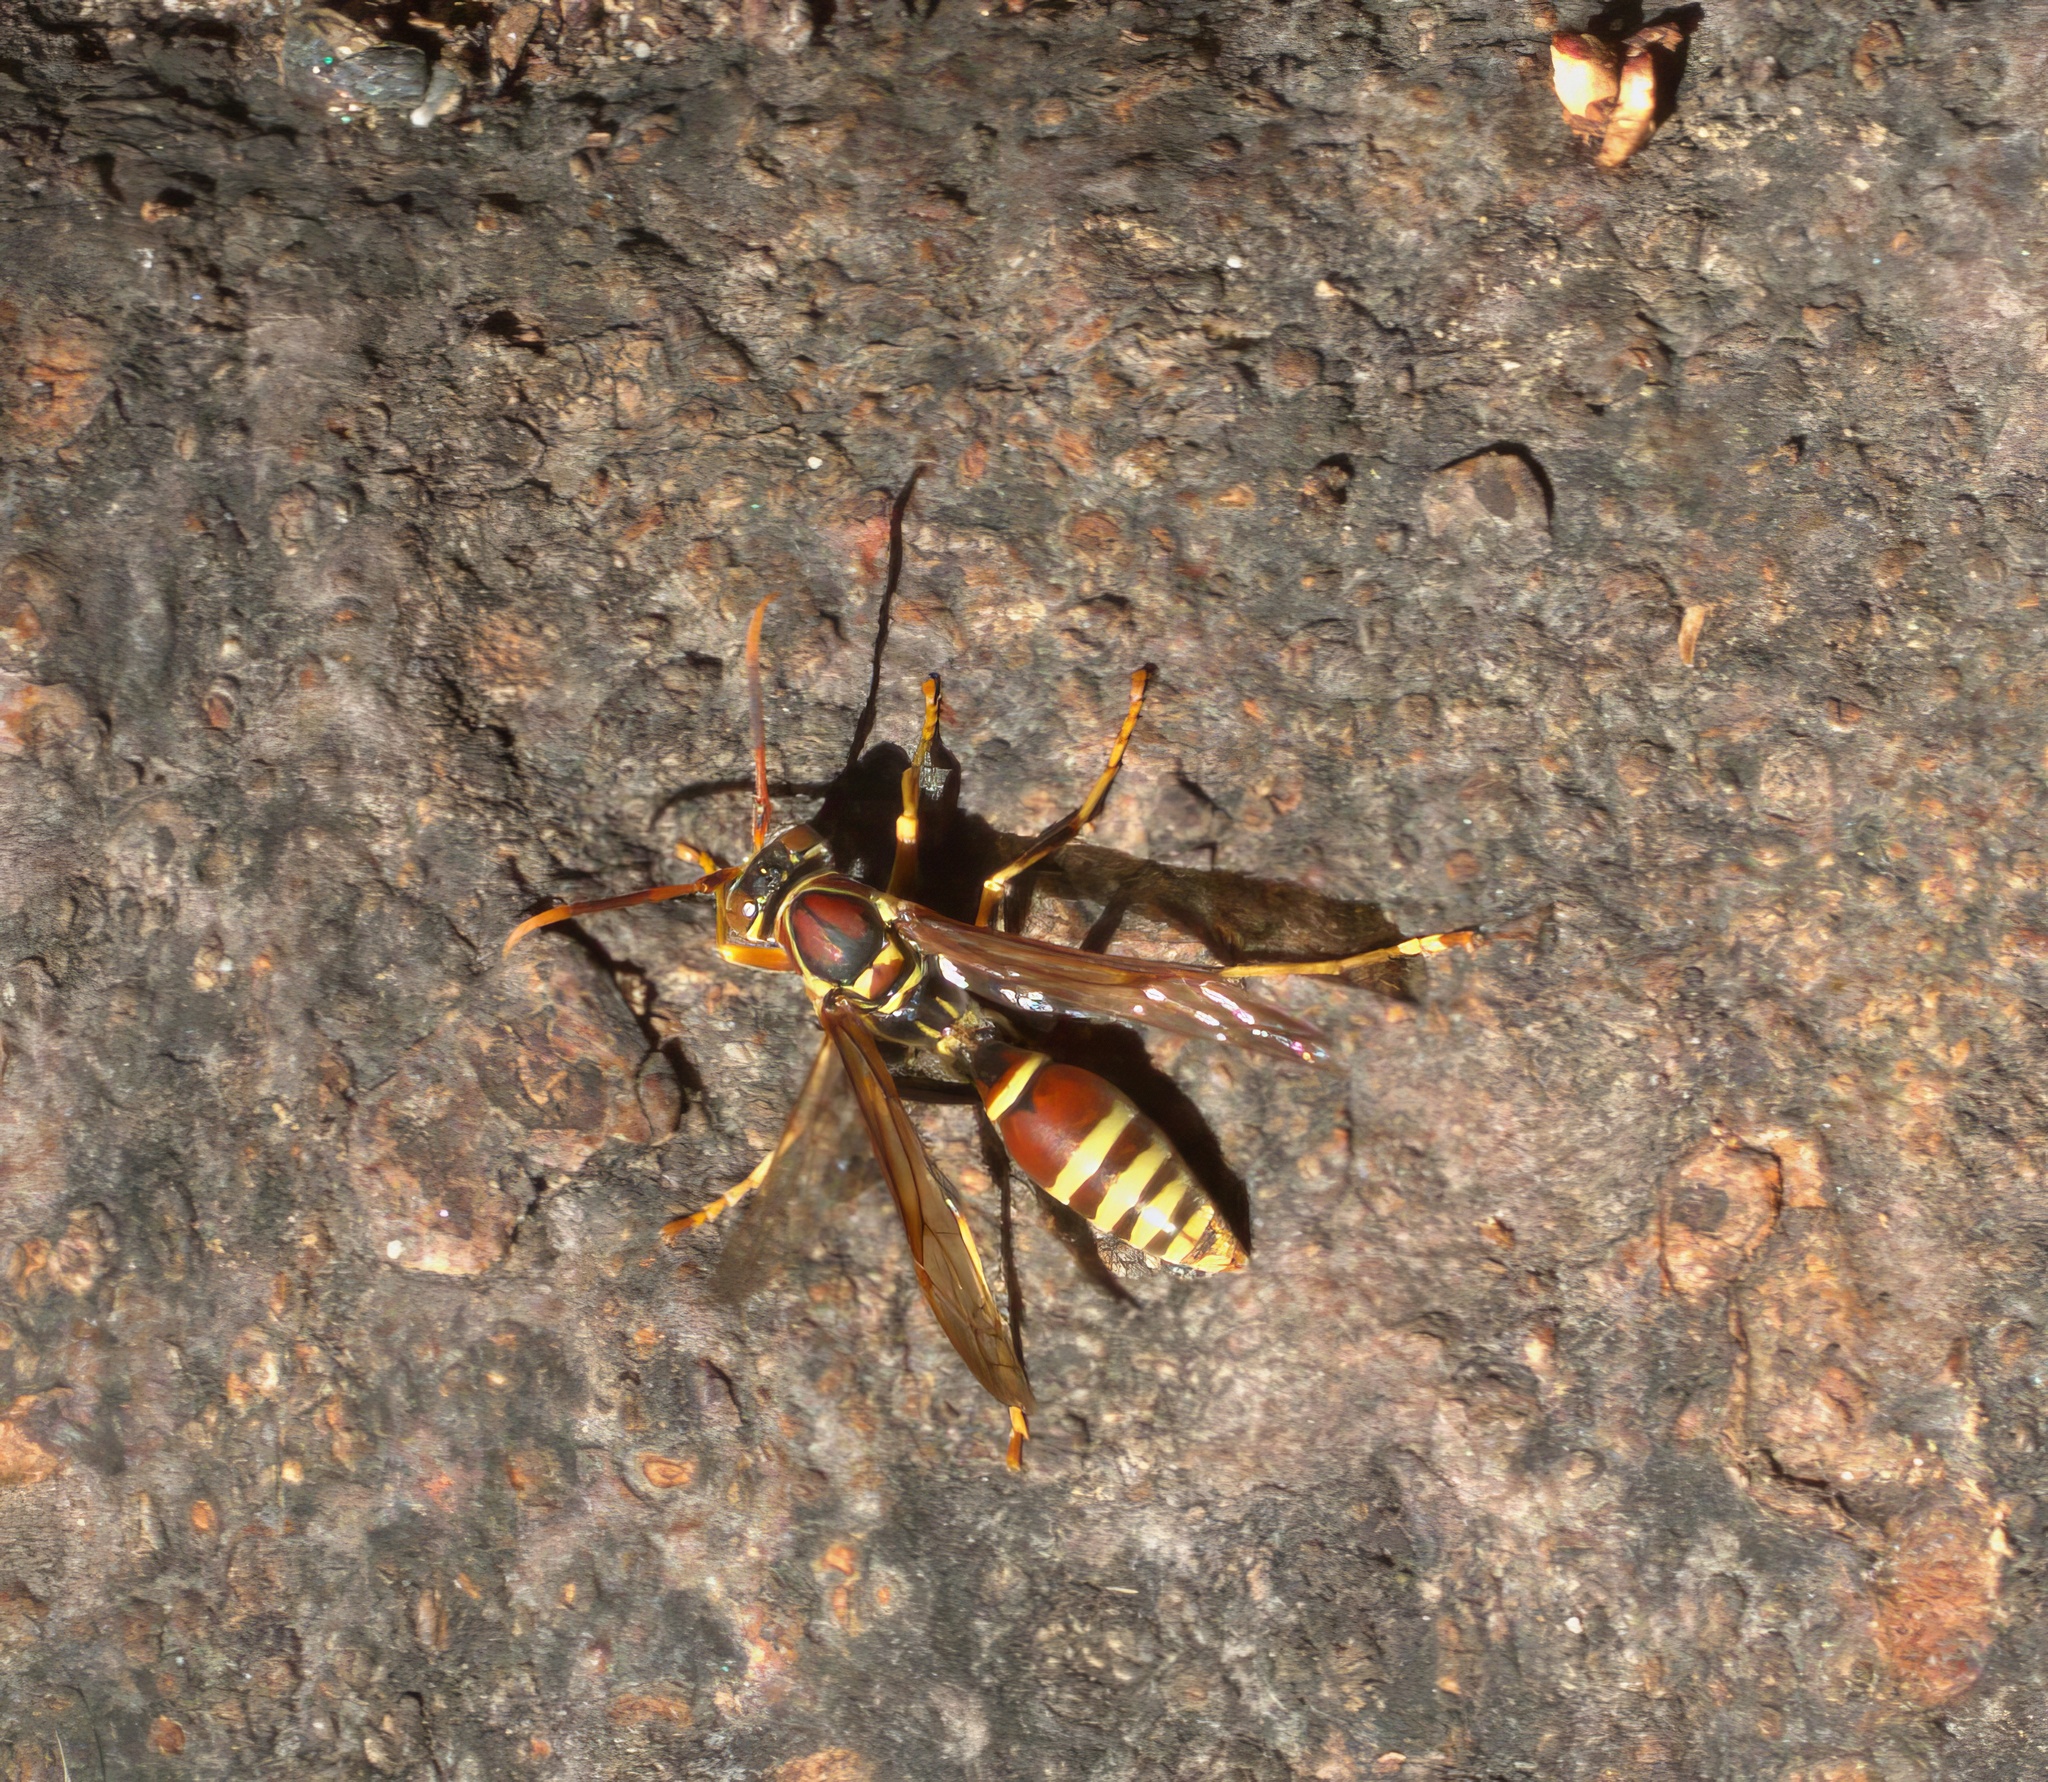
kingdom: Animalia
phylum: Arthropoda
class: Insecta
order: Hymenoptera
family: Eumenidae
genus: Polistes
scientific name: Polistes exclamans
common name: Paper wasp
